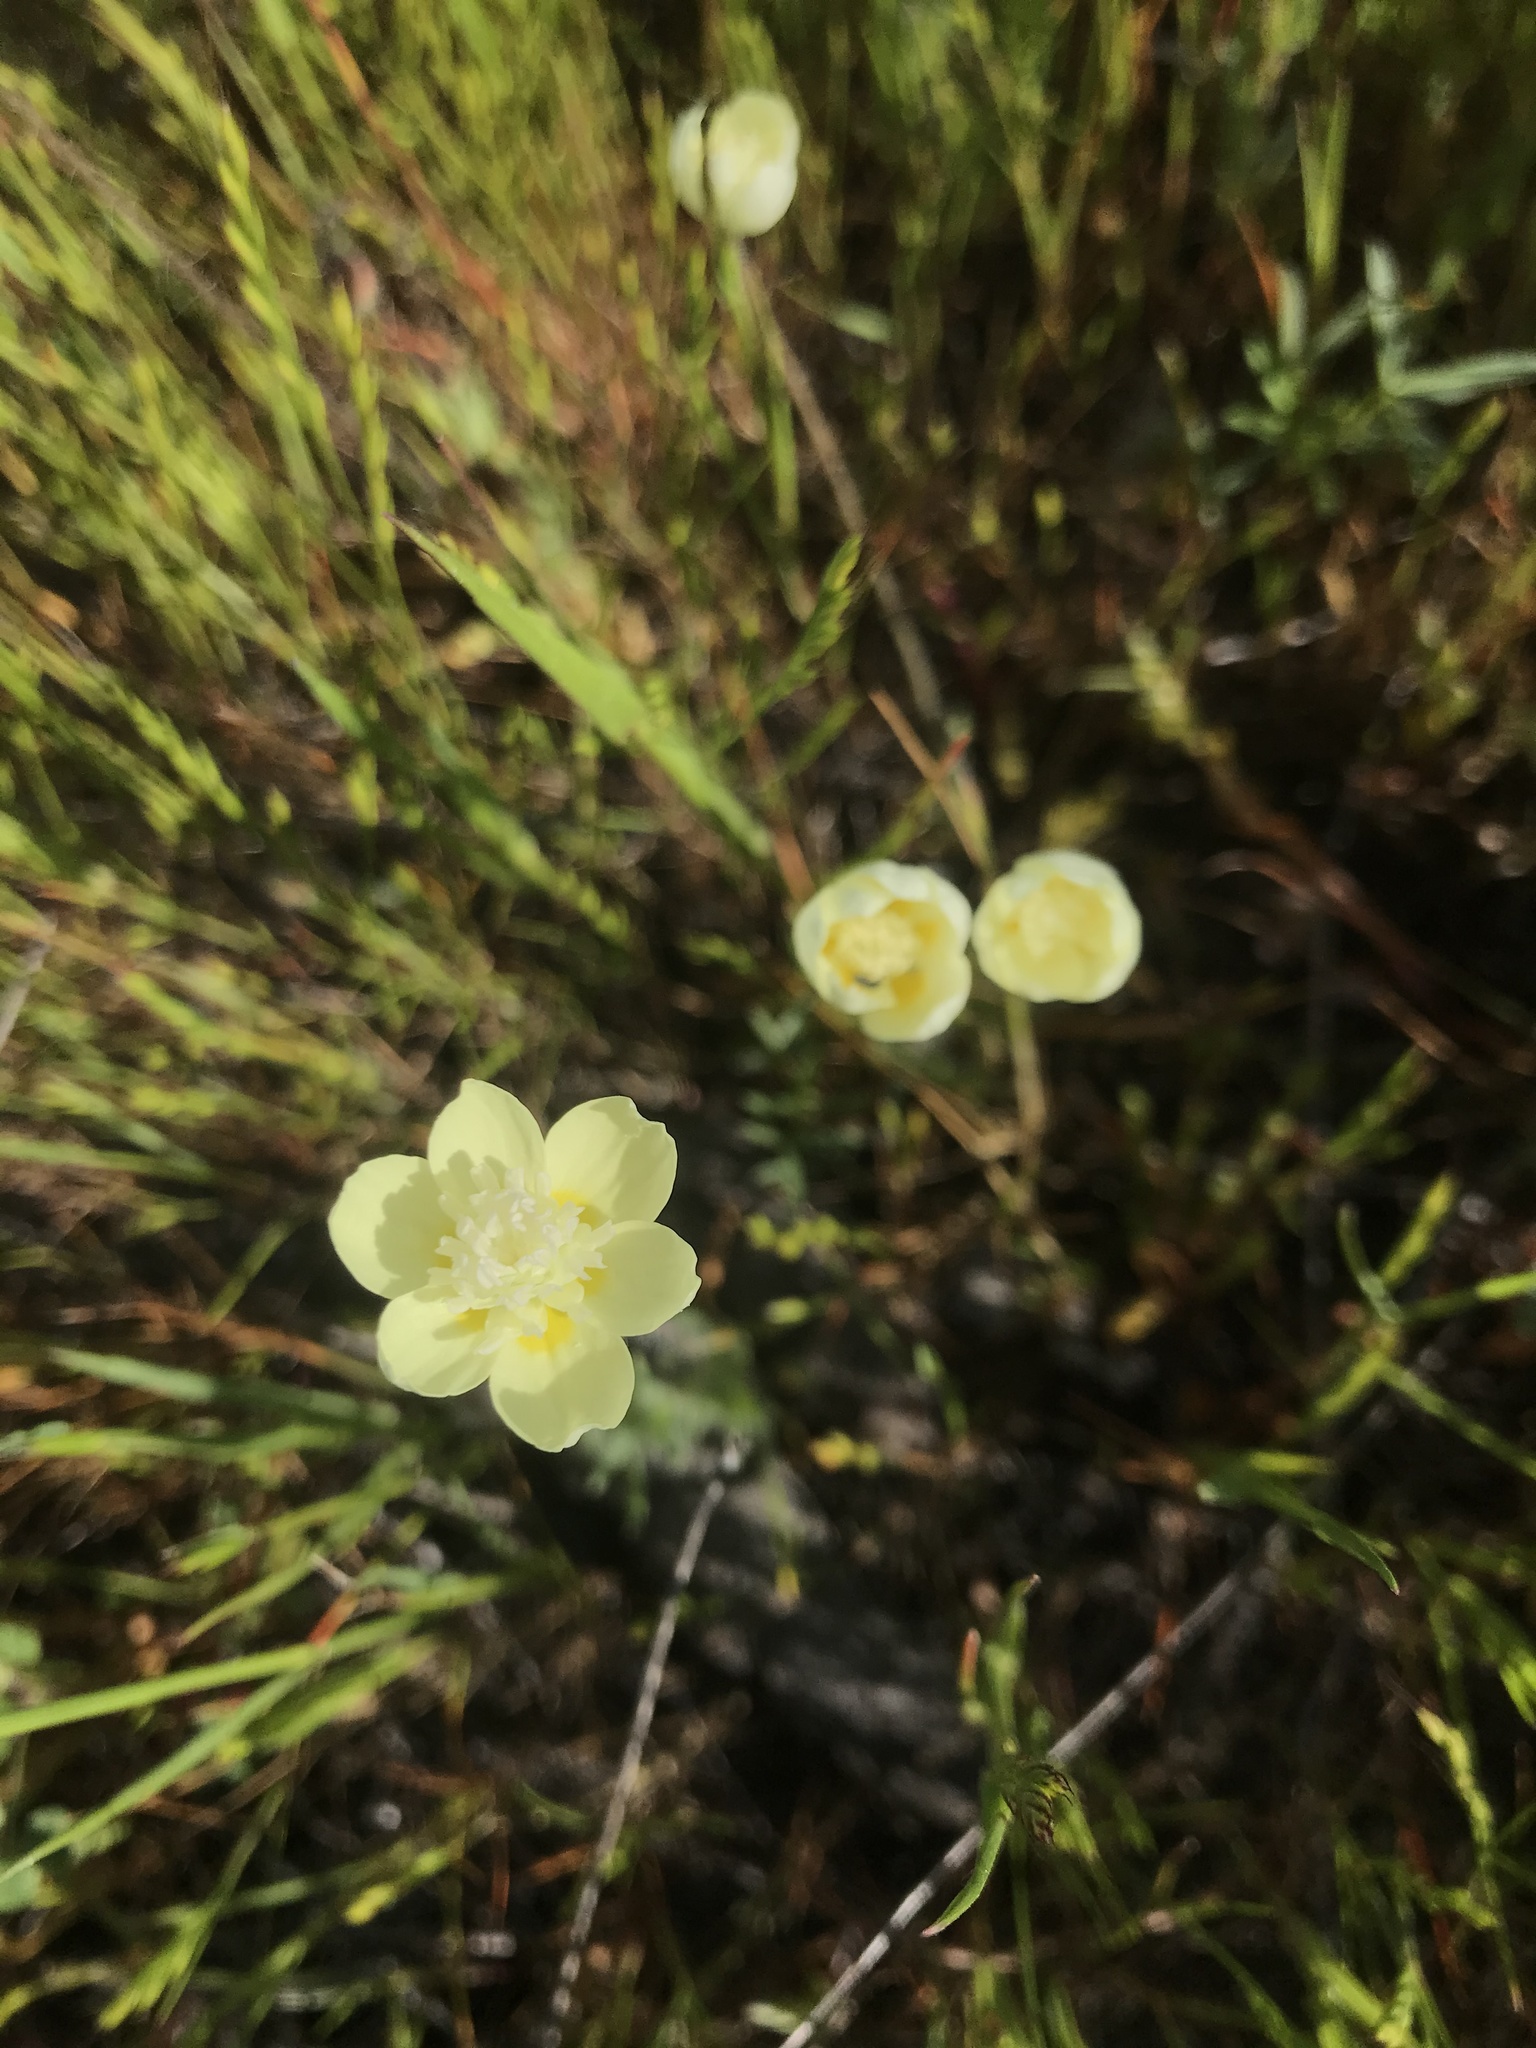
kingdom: Plantae
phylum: Tracheophyta
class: Magnoliopsida
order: Ranunculales
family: Papaveraceae
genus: Platystemon
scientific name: Platystemon californicus
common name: Cream-cups
